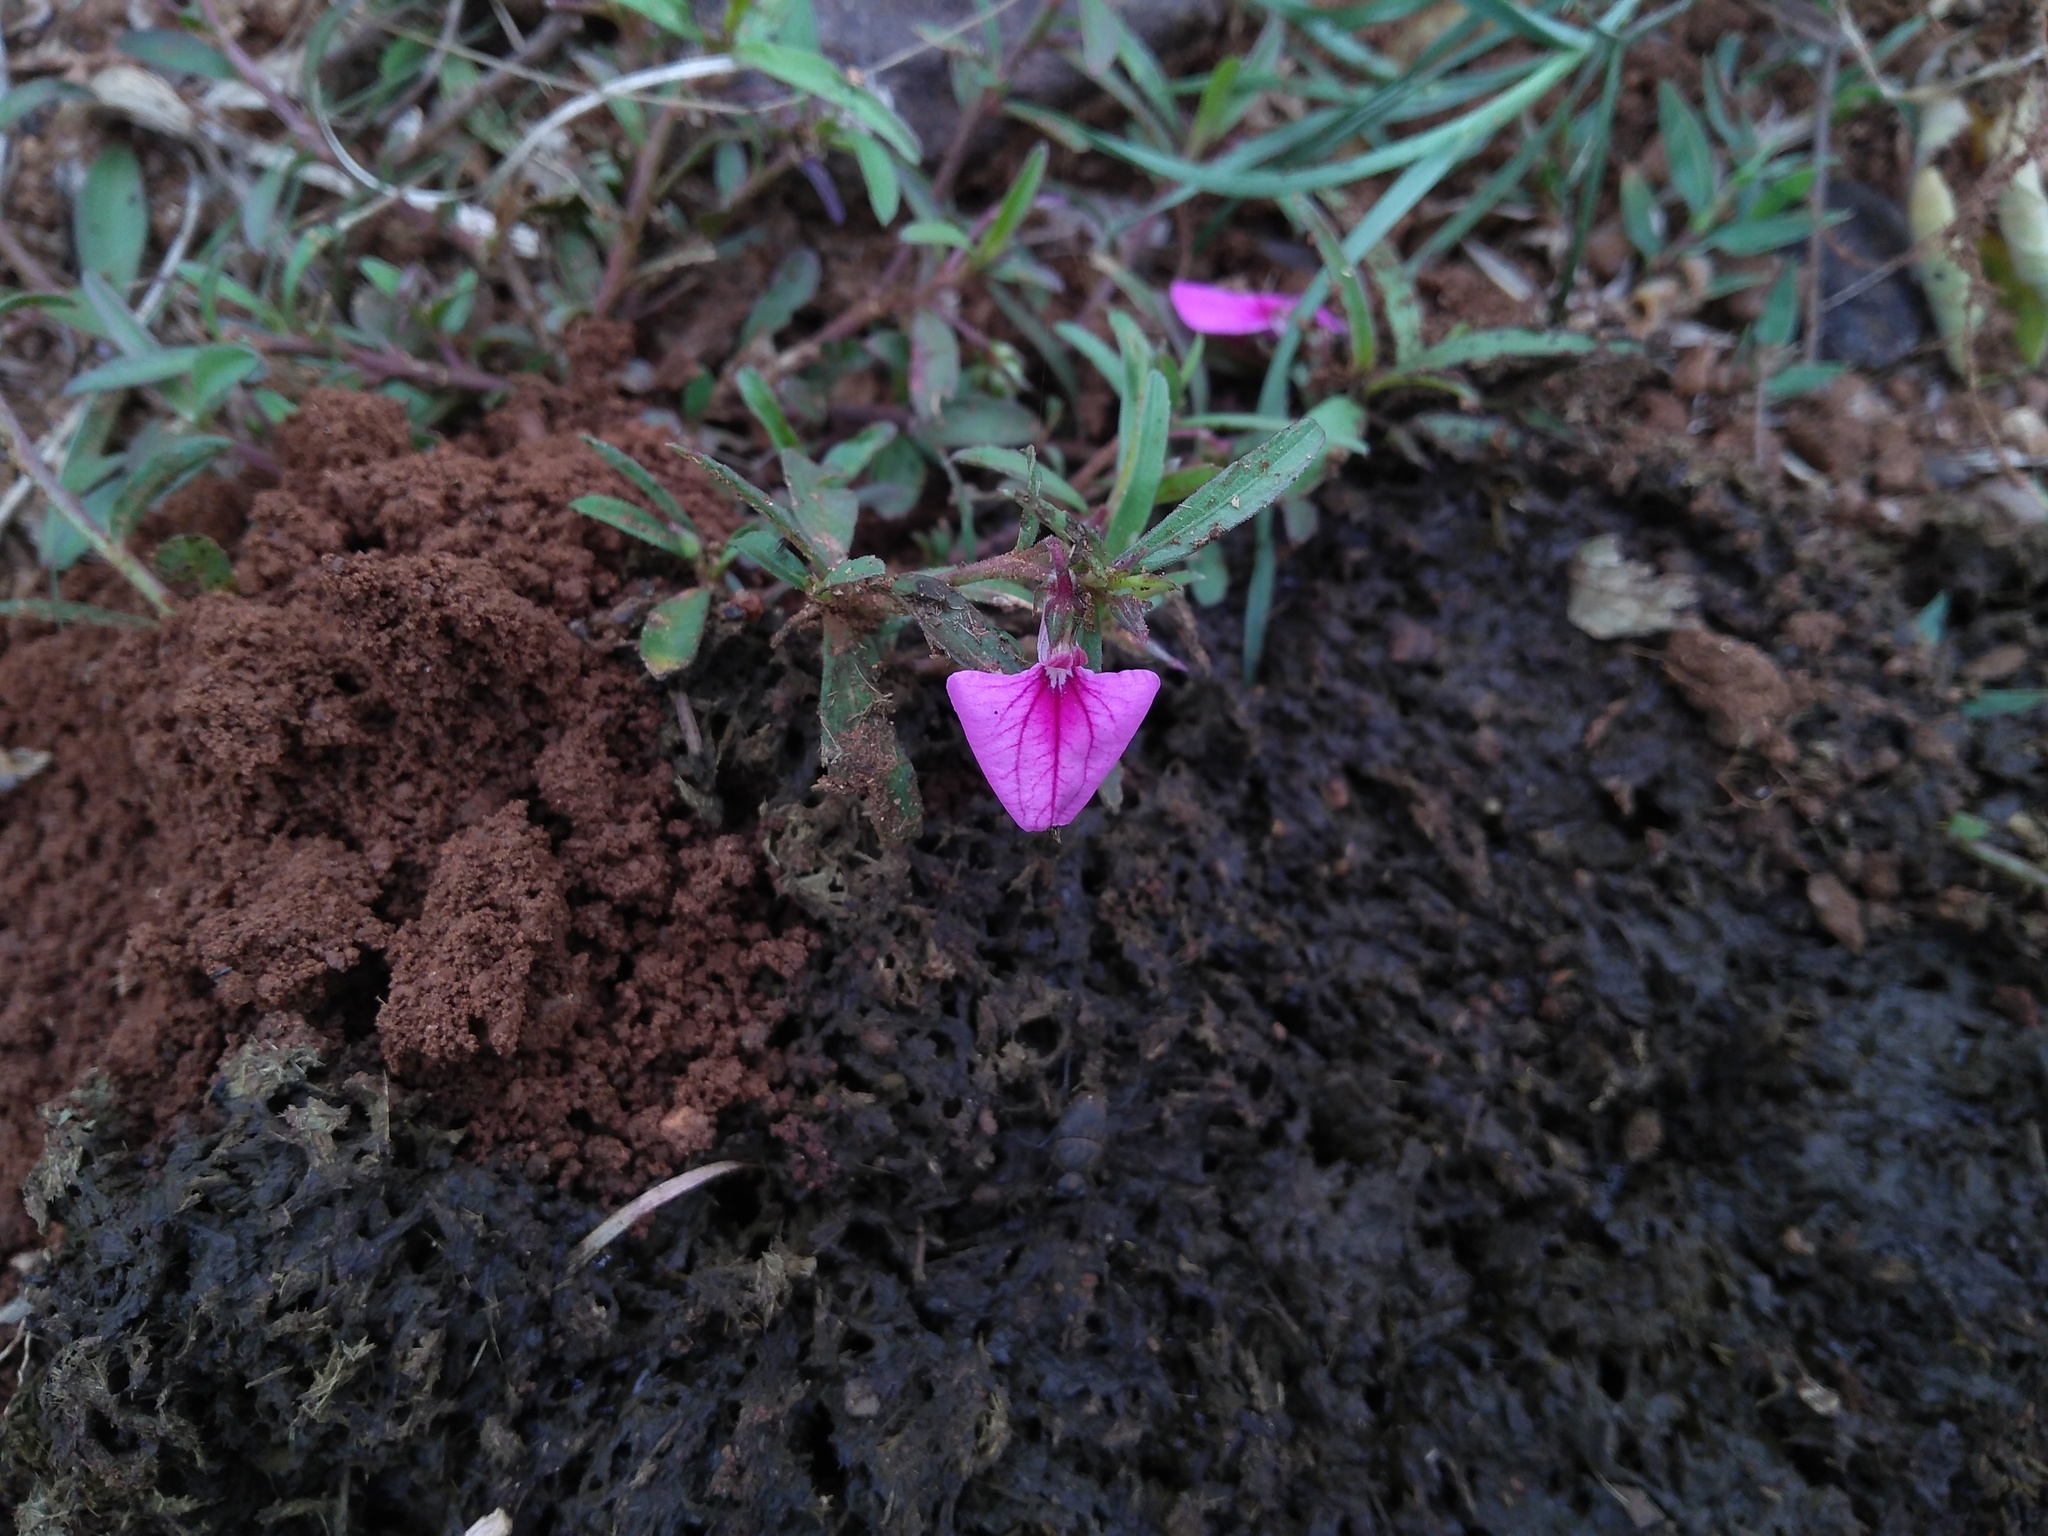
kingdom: Plantae
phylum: Tracheophyta
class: Magnoliopsida
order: Malpighiales
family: Violaceae
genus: Pigea
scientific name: Pigea enneasperma
